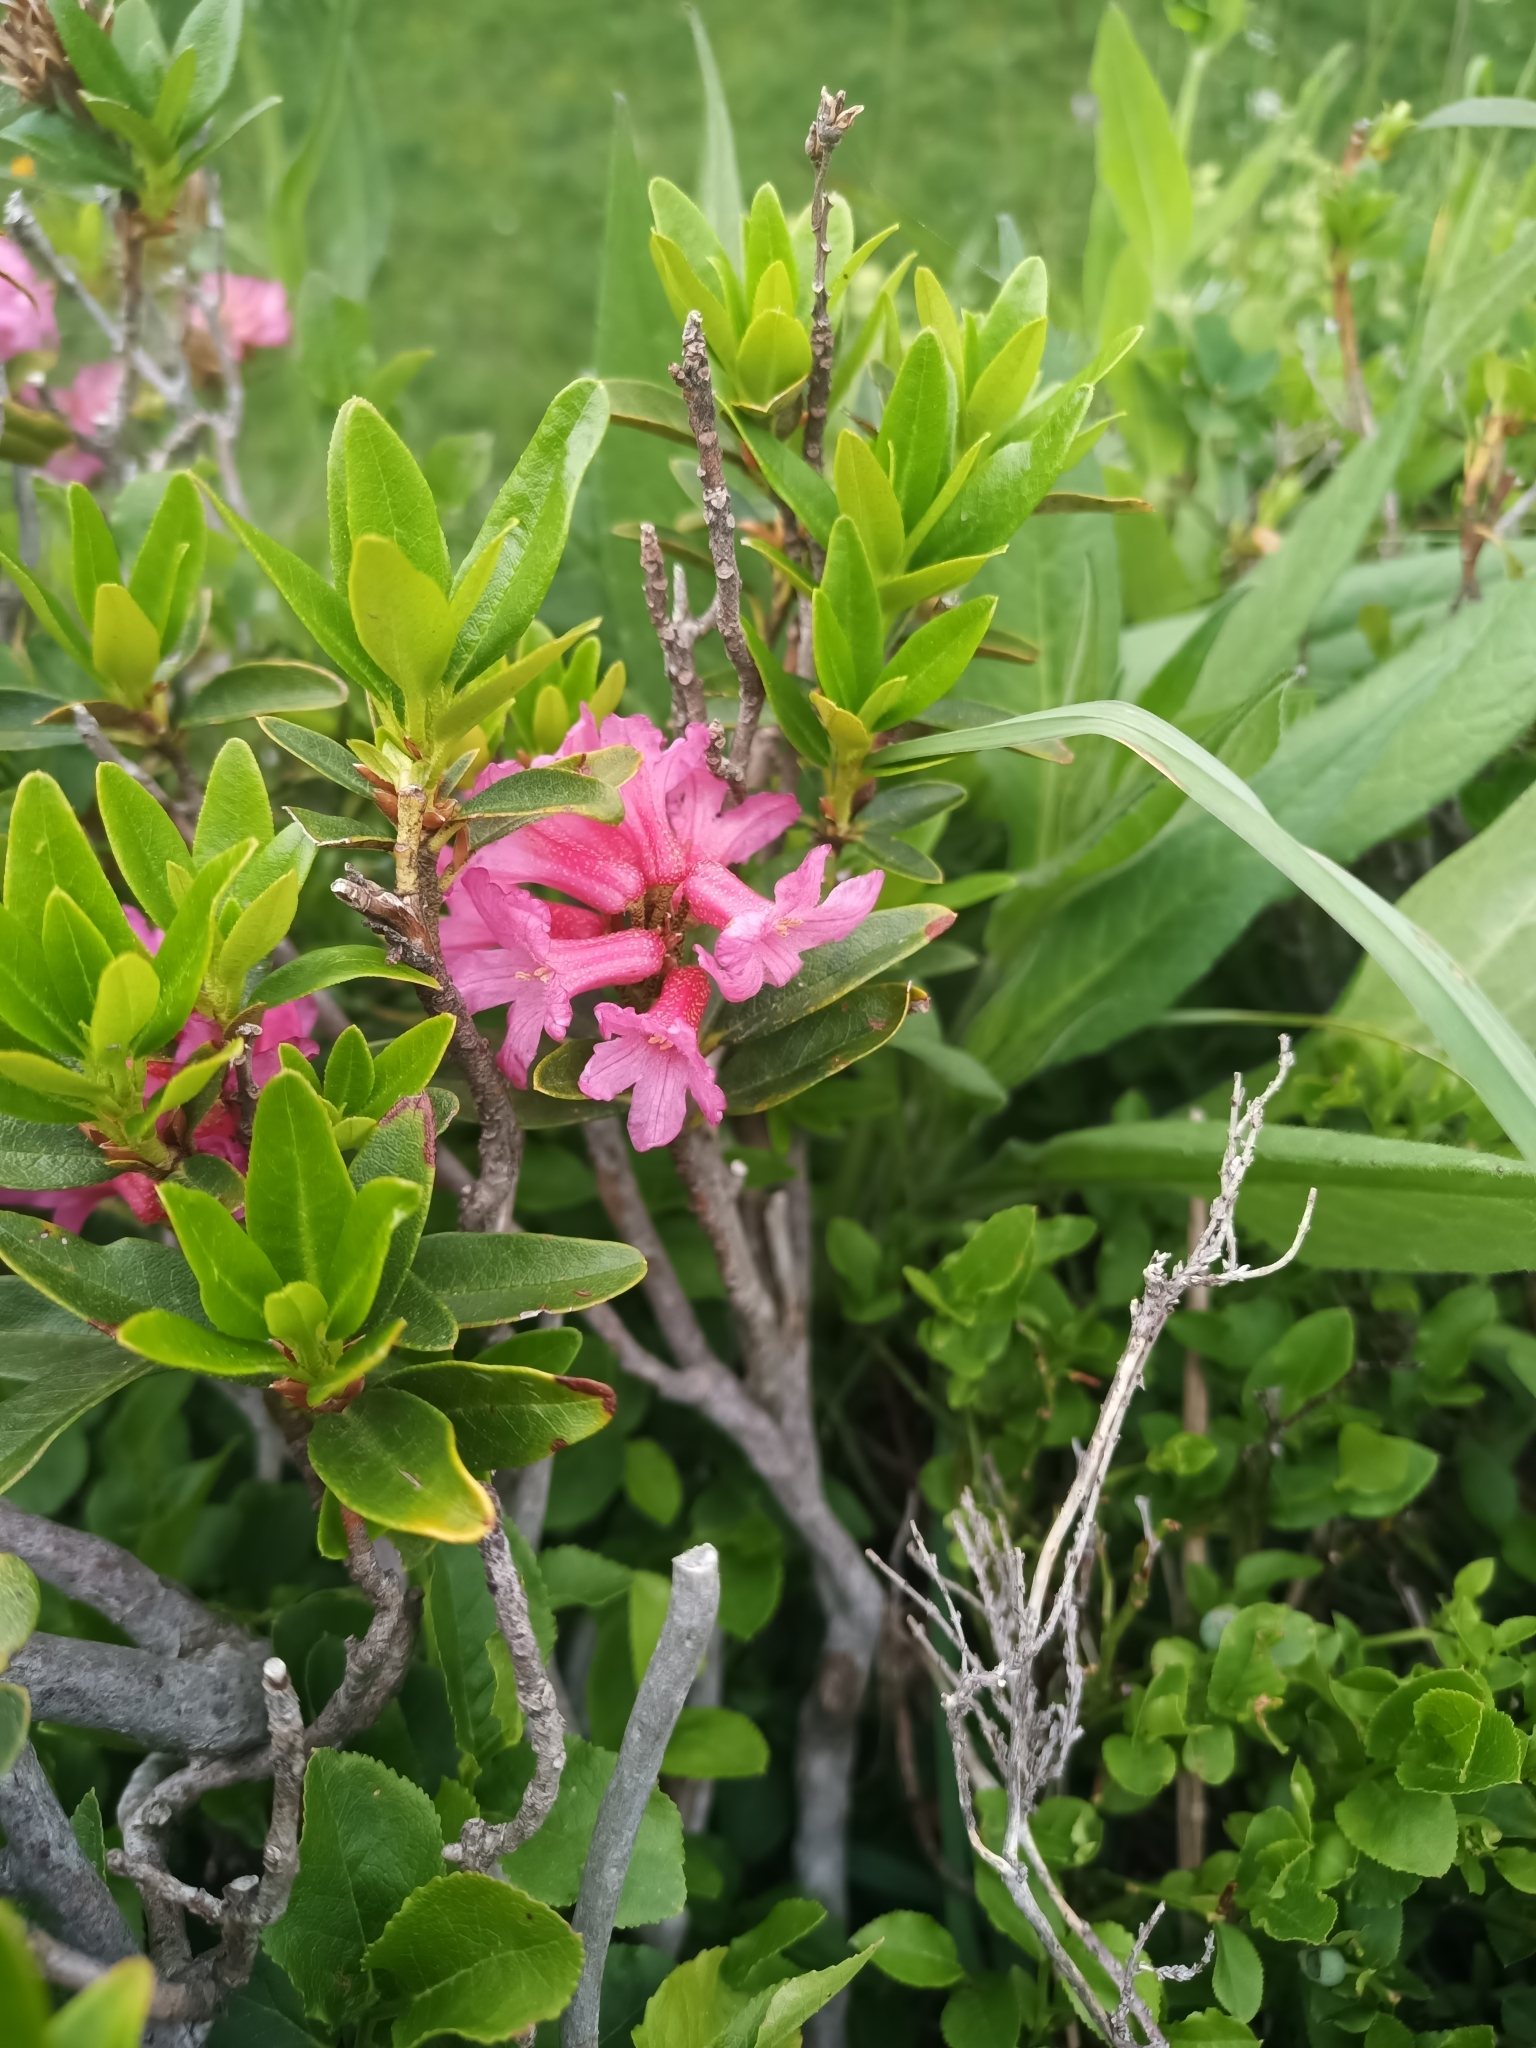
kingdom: Plantae
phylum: Tracheophyta
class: Magnoliopsida
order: Ericales
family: Ericaceae
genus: Rhododendron
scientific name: Rhododendron ferrugineum
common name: Alpenrose
